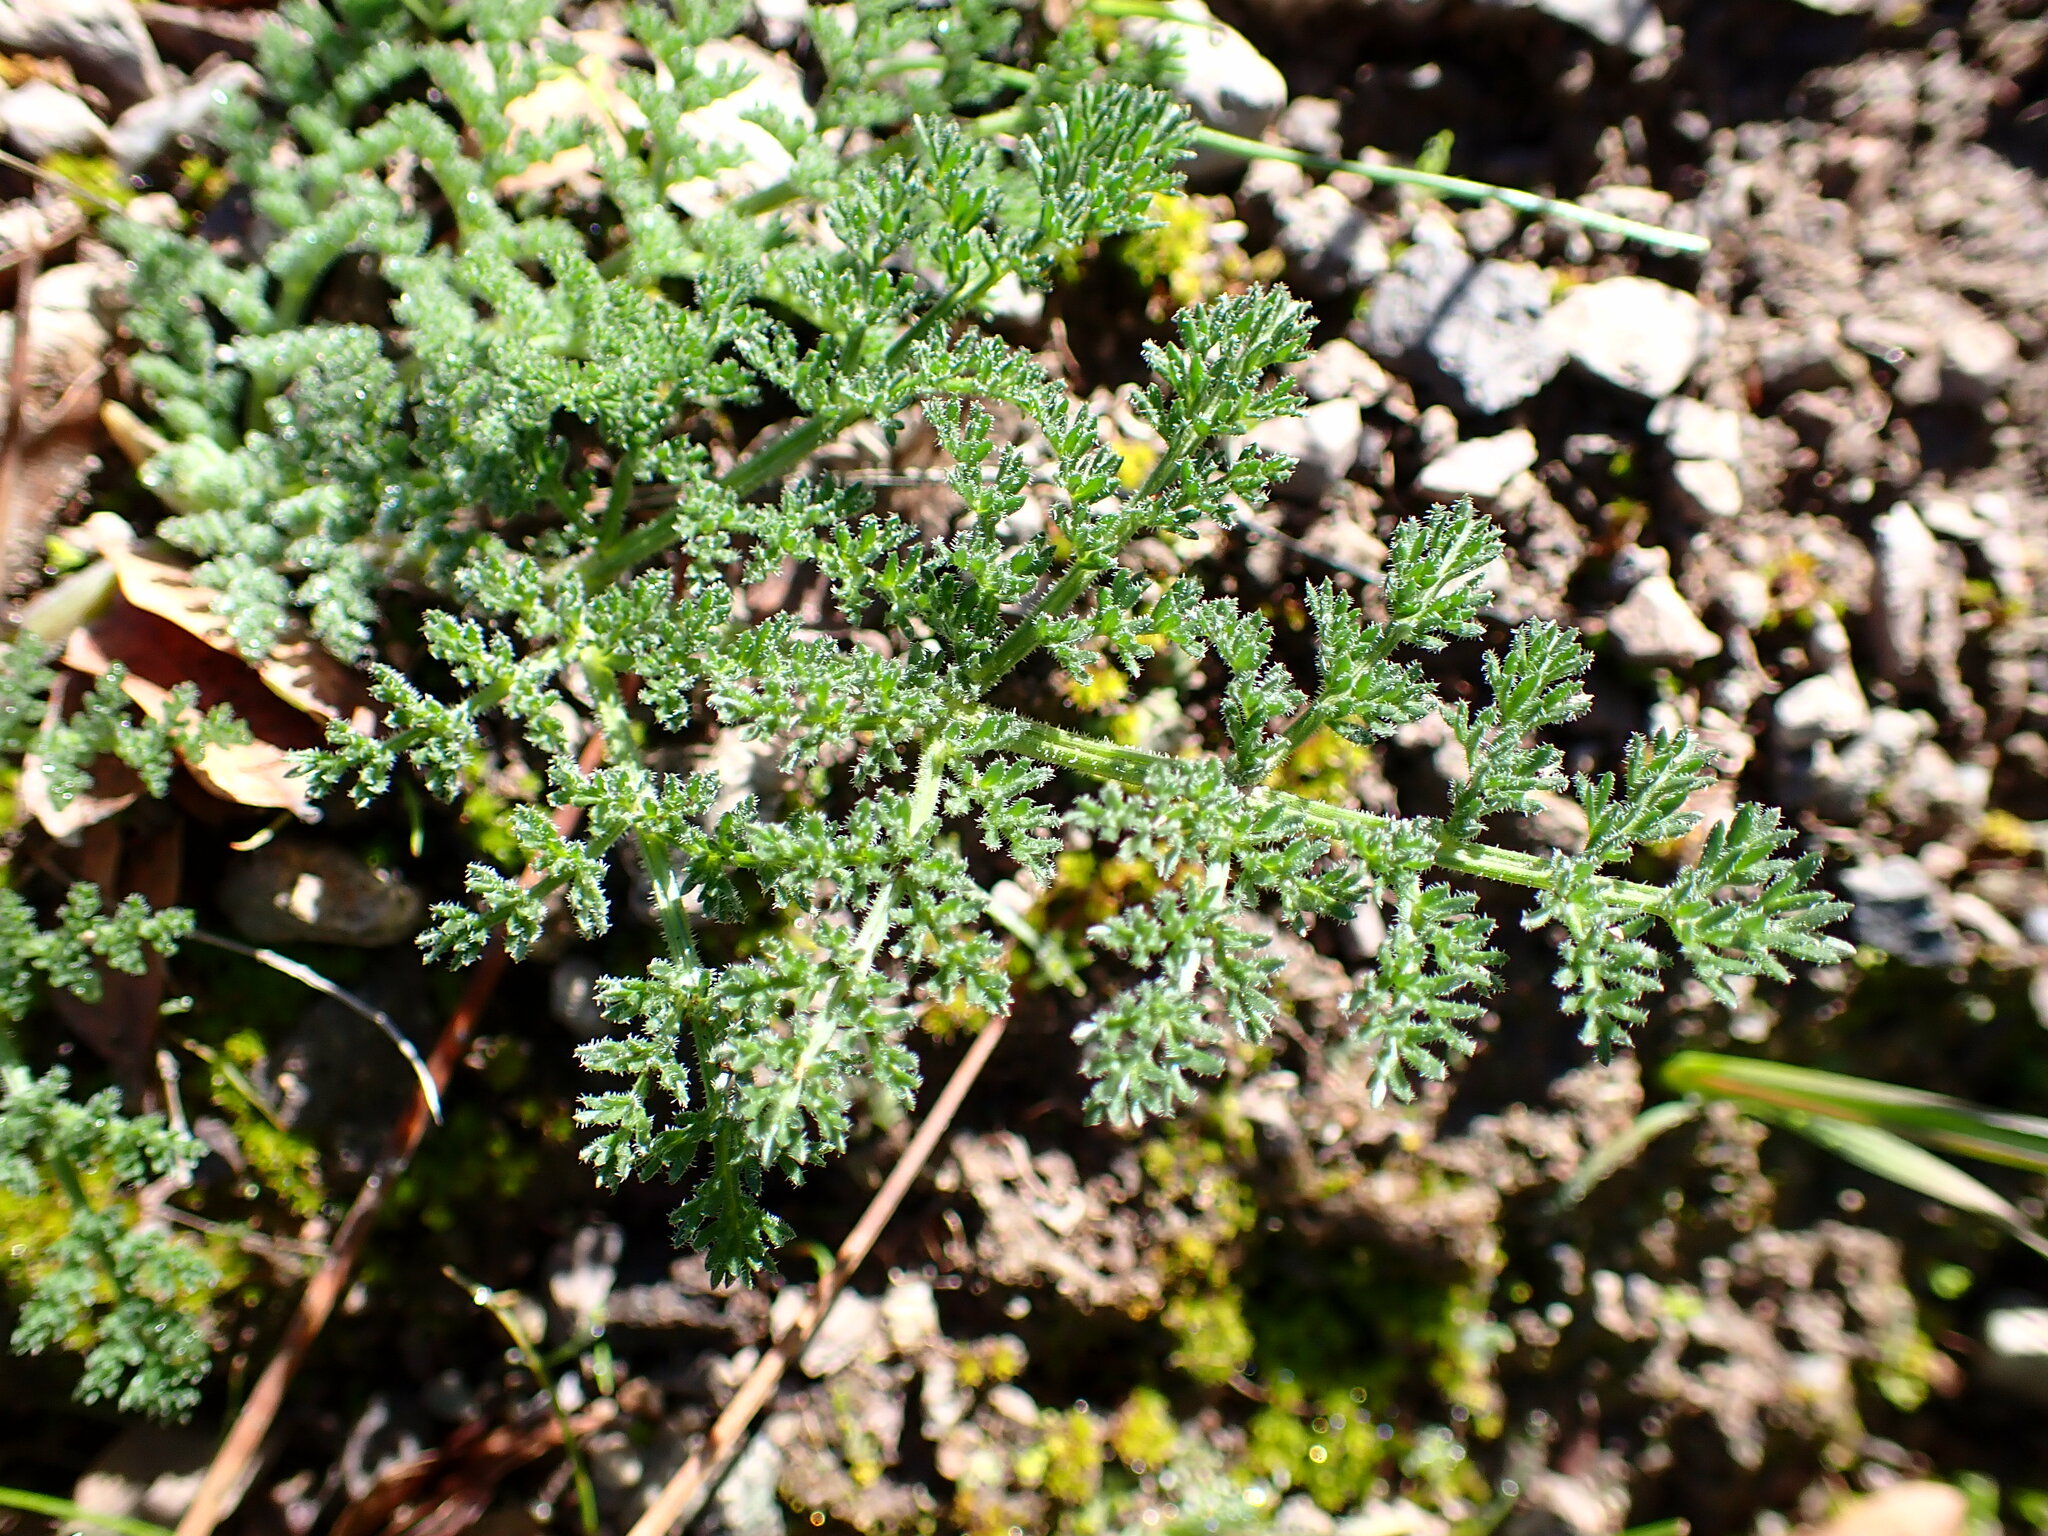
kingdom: Plantae
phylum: Tracheophyta
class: Magnoliopsida
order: Apiales
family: Apiaceae
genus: Lomatium
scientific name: Lomatium dasycarpum
